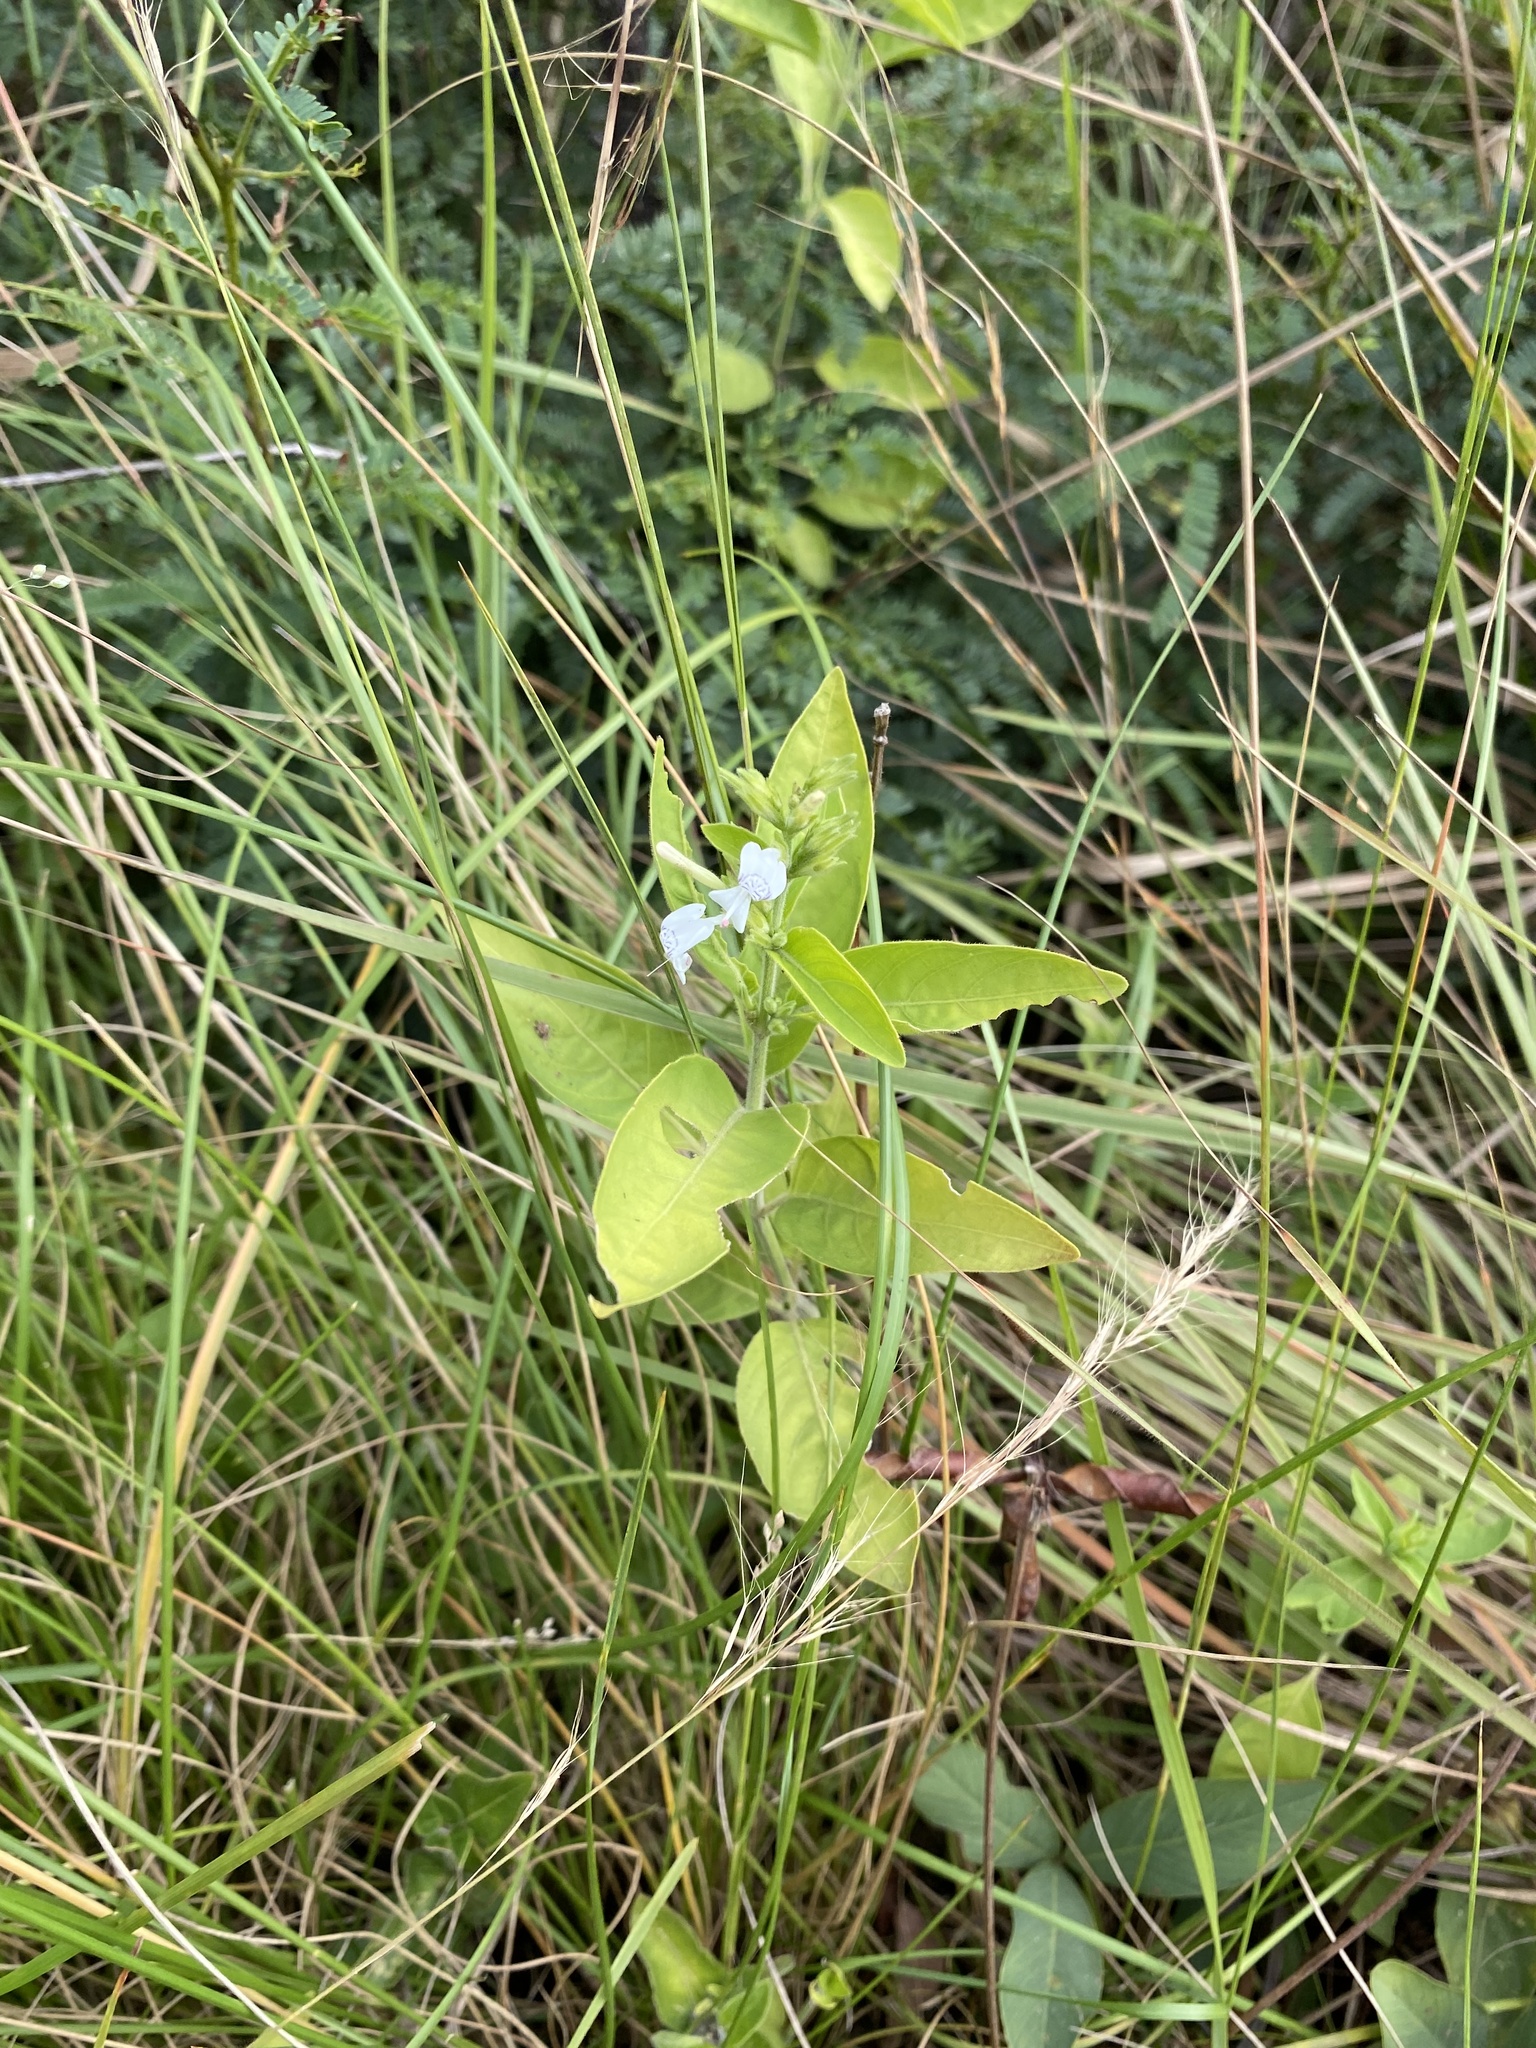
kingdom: Plantae
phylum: Tracheophyta
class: Magnoliopsida
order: Lamiales
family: Acanthaceae
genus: Hypoestes
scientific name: Hypoestes forskaolii
